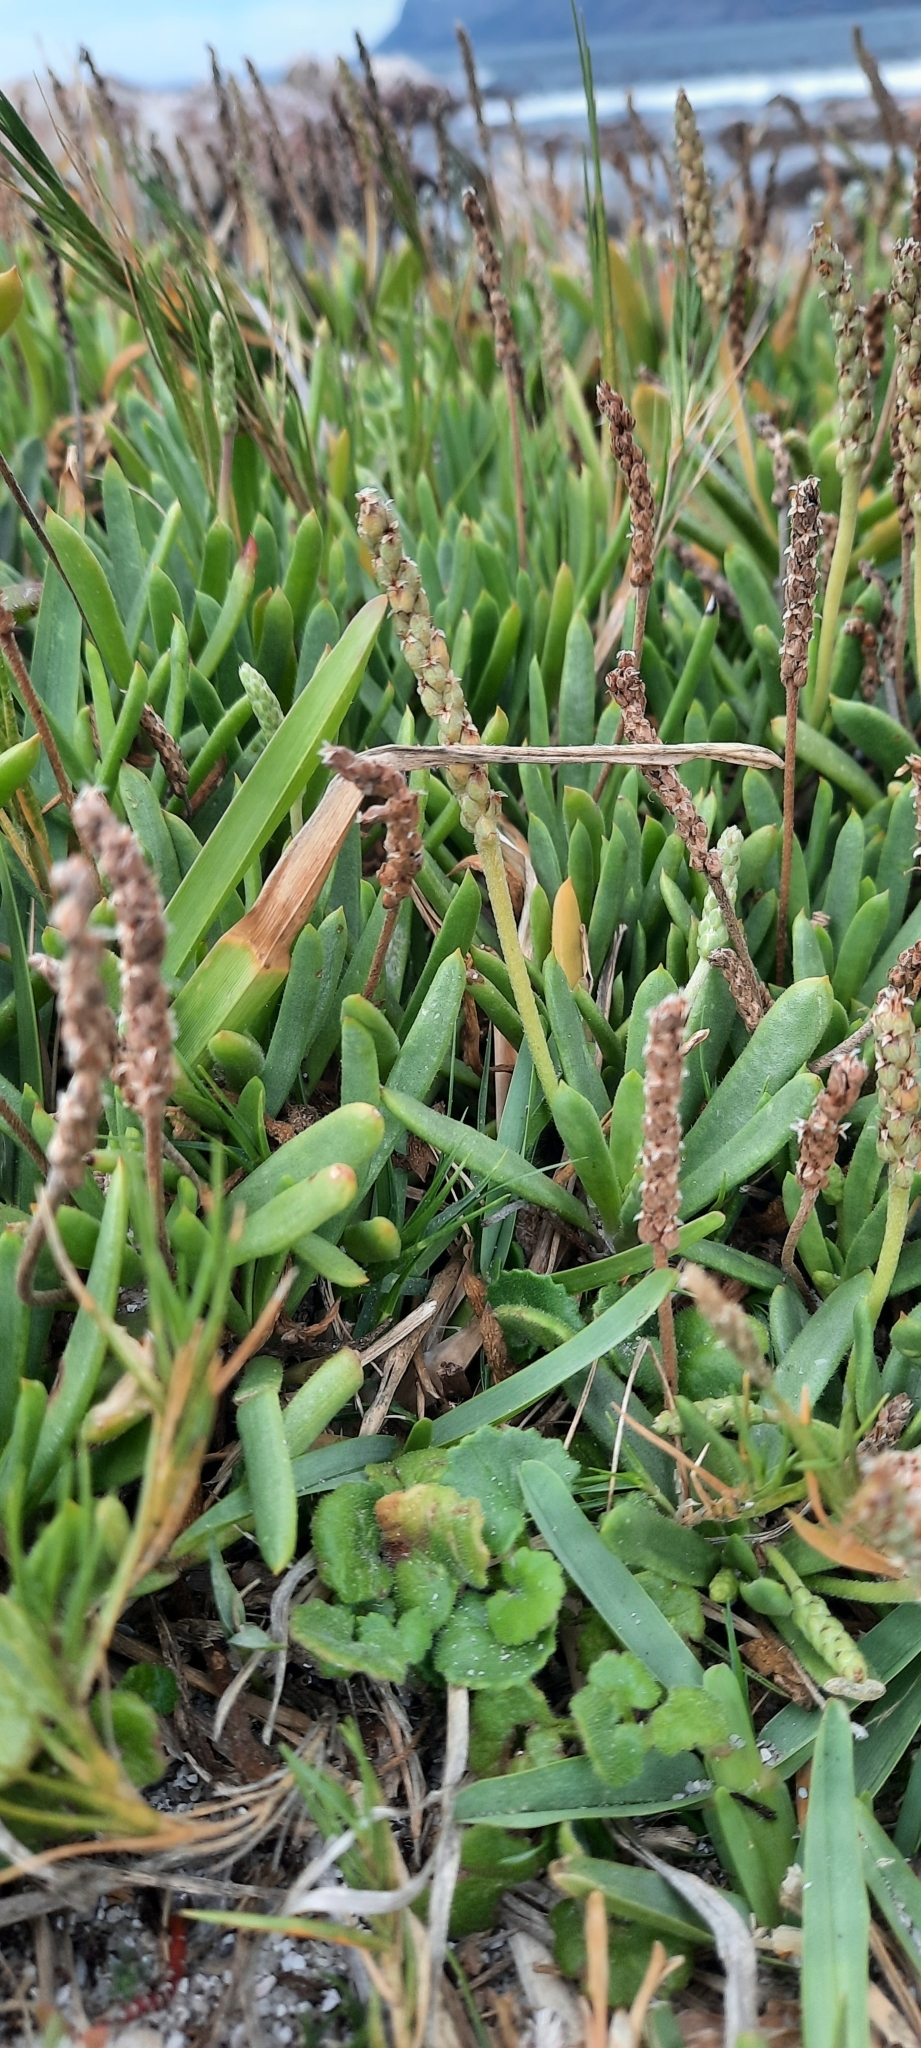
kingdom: Plantae
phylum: Tracheophyta
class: Magnoliopsida
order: Lamiales
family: Plantaginaceae
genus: Plantago
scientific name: Plantago carnosa
